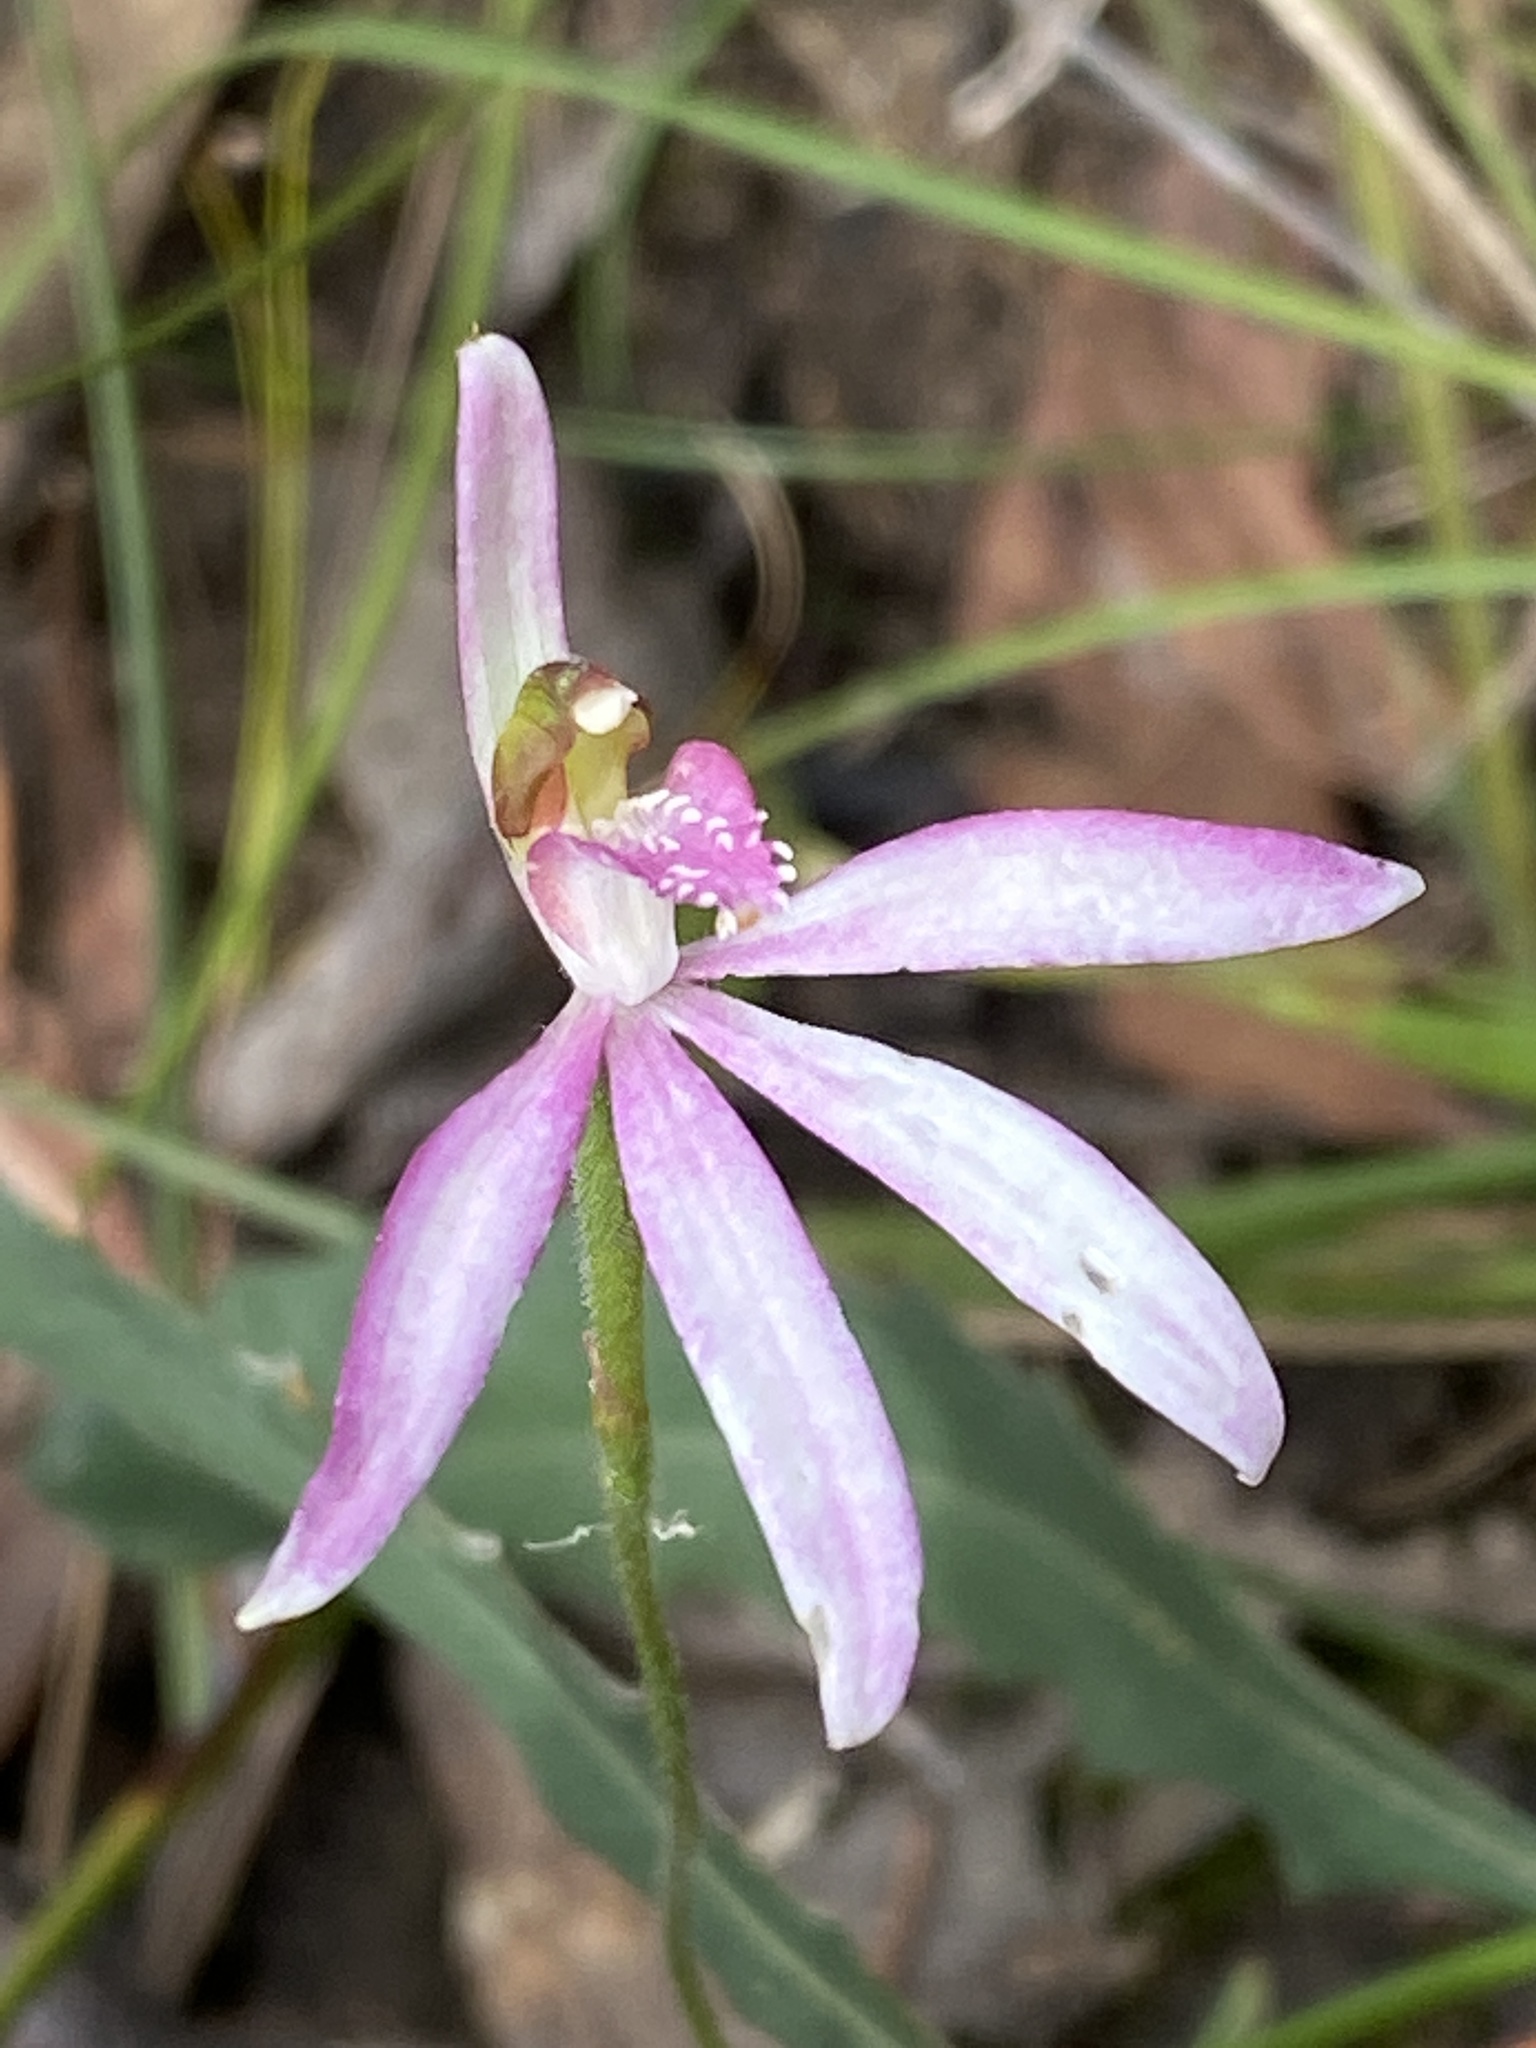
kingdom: Plantae
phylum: Tracheophyta
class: Liliopsida
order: Asparagales
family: Orchidaceae
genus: Caladenia
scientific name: Caladenia catenata
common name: White caladenia
